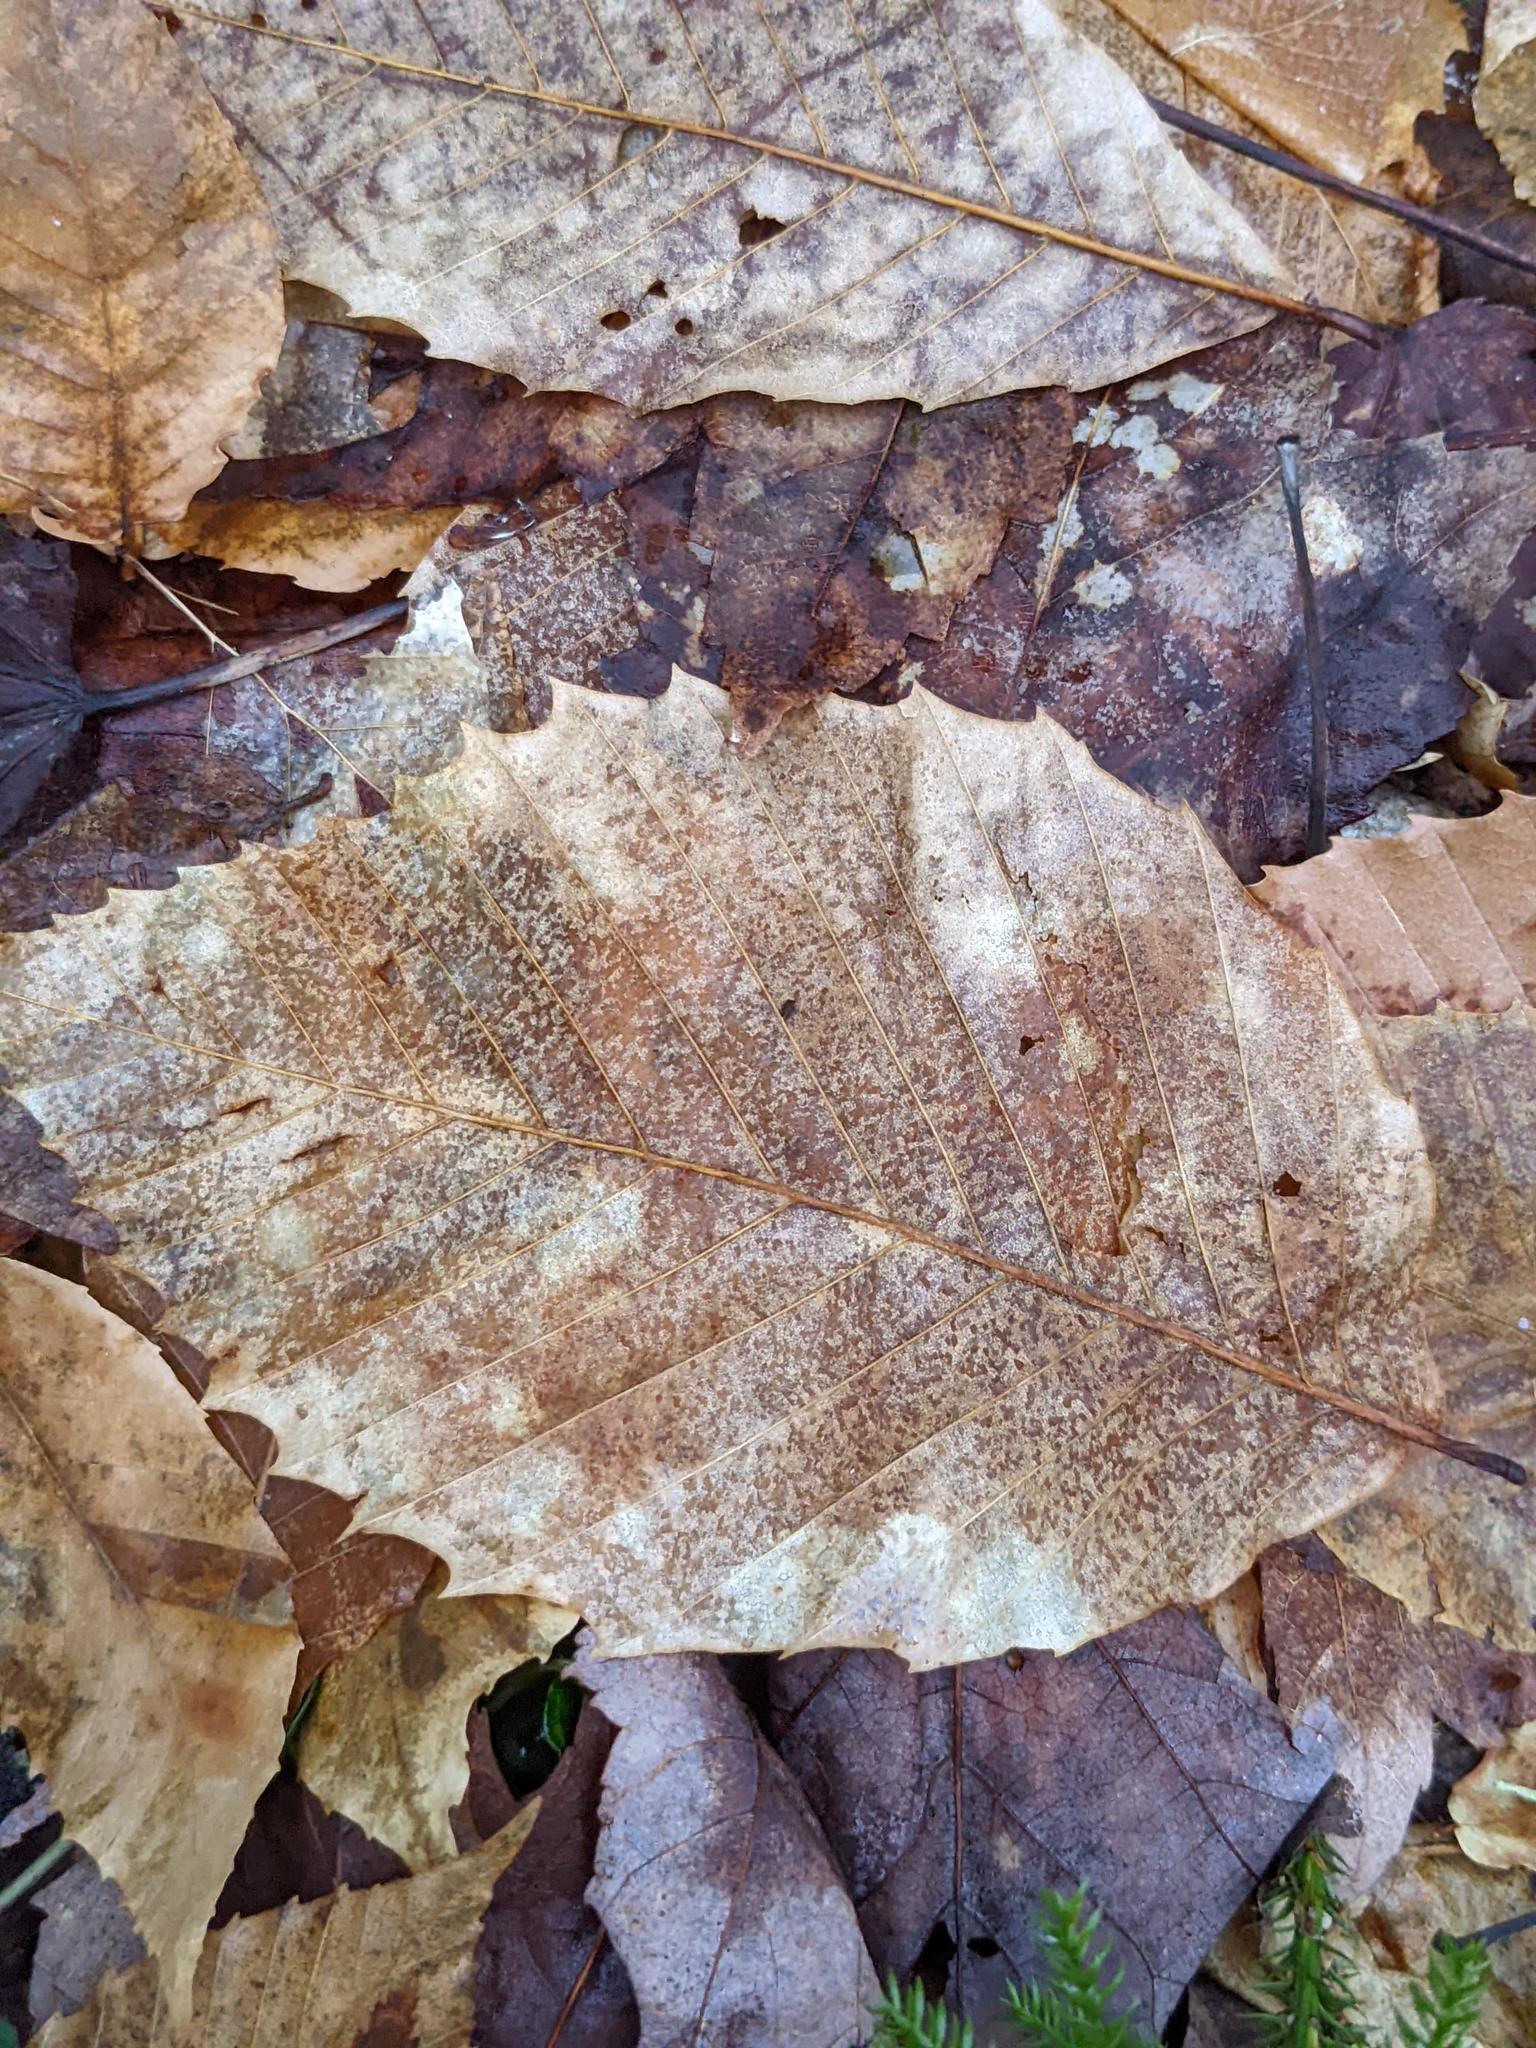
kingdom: Plantae
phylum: Tracheophyta
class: Magnoliopsida
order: Fagales
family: Fagaceae
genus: Fagus
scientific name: Fagus grandifolia
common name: American beech
